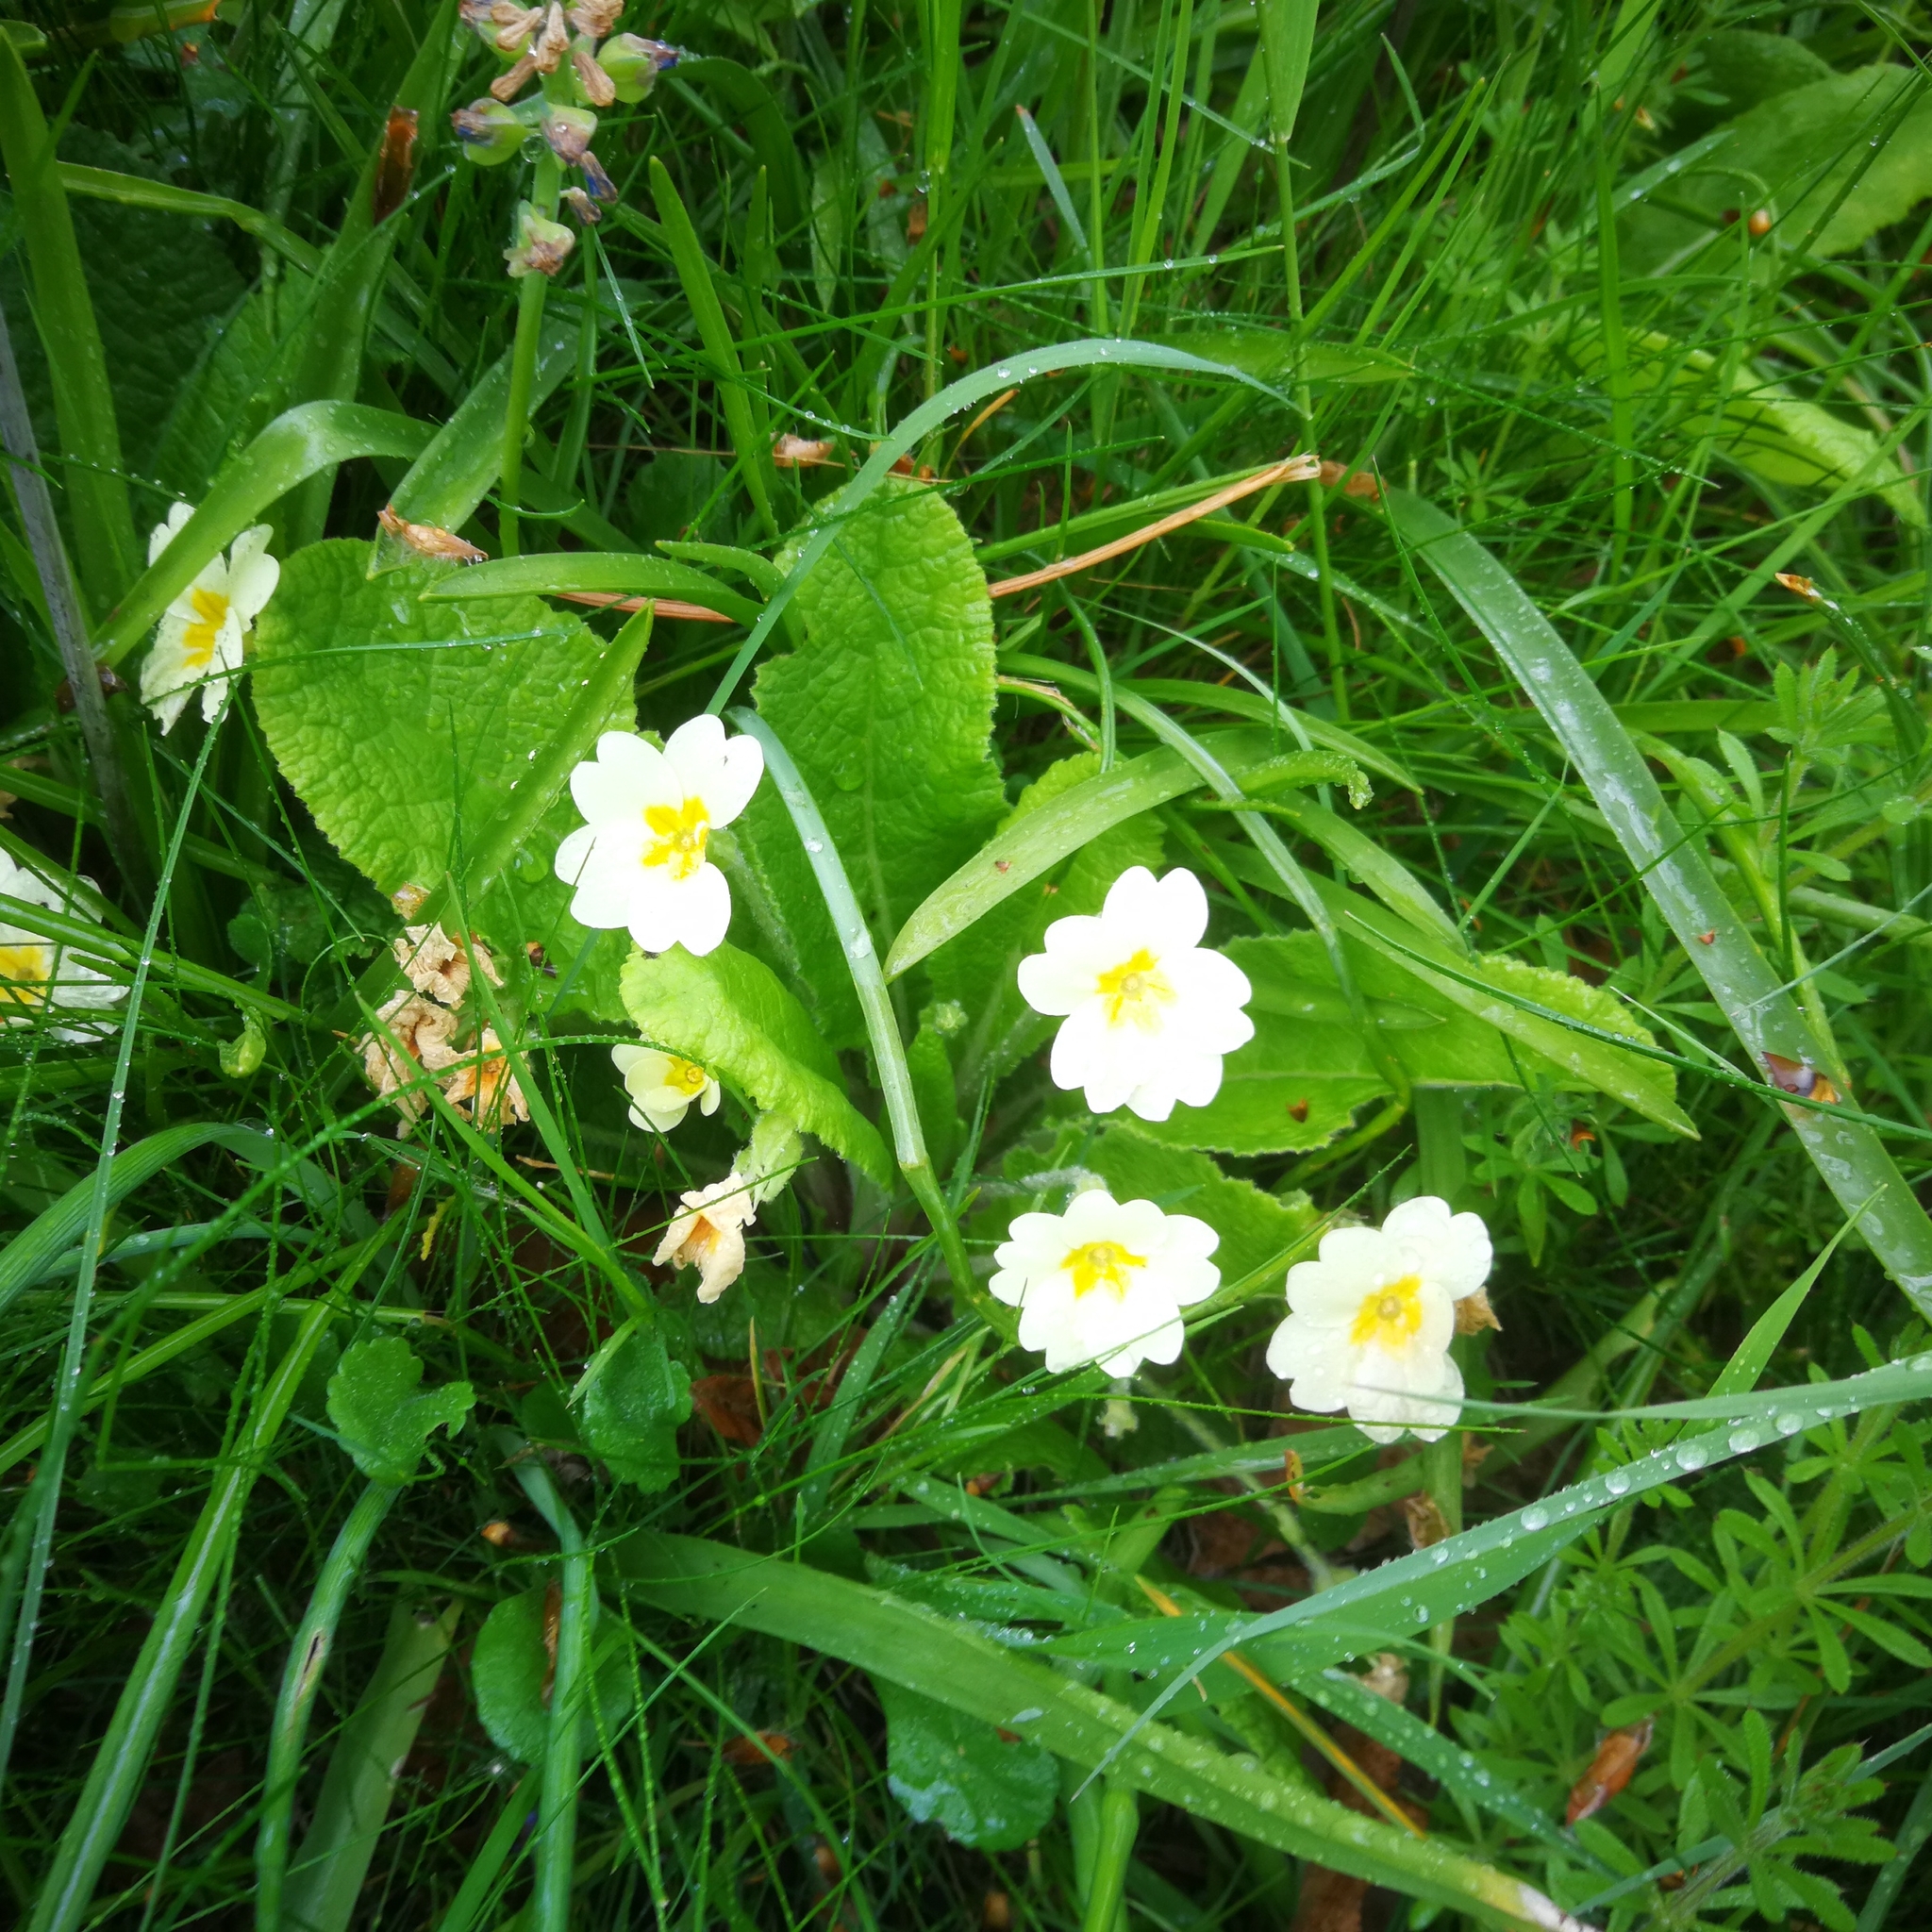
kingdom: Plantae
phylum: Tracheophyta
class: Magnoliopsida
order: Ericales
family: Primulaceae
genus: Primula
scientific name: Primula vulgaris
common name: Primrose
